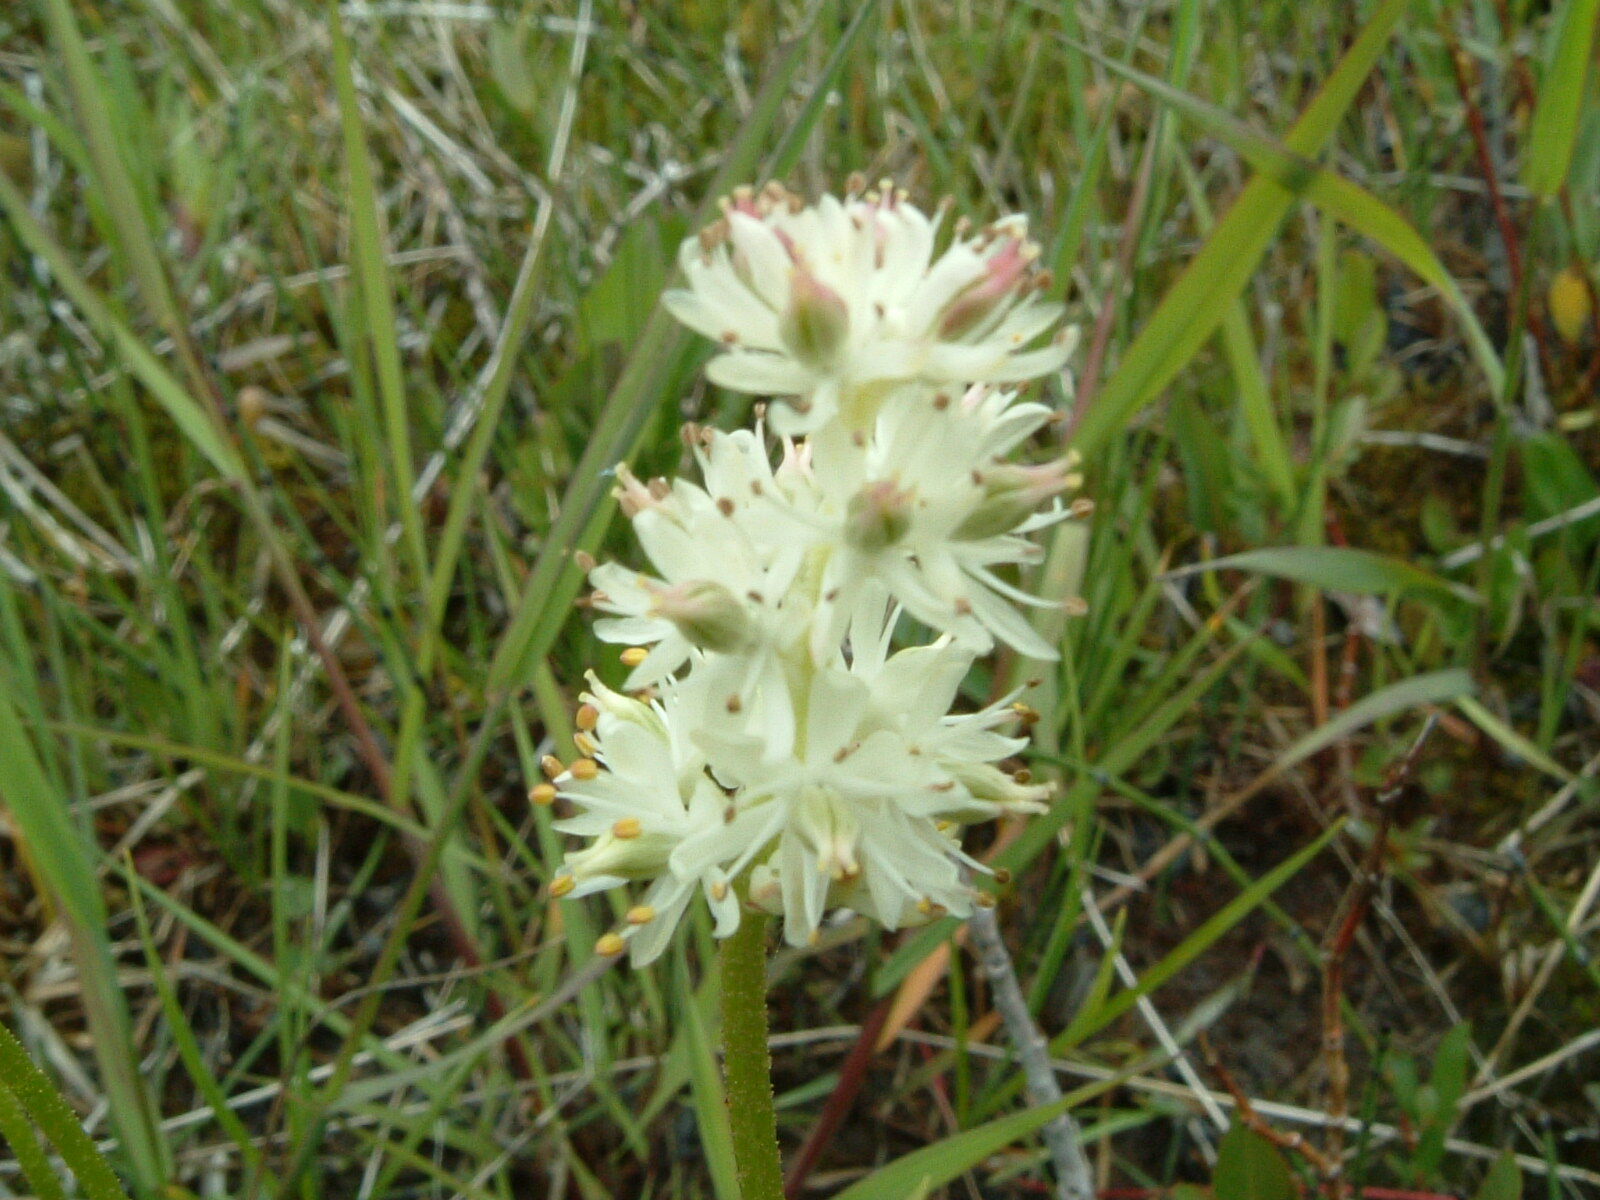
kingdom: Plantae
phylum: Tracheophyta
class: Liliopsida
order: Alismatales
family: Tofieldiaceae
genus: Triantha
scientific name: Triantha glutinosa
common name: Glutinous tofieldia
